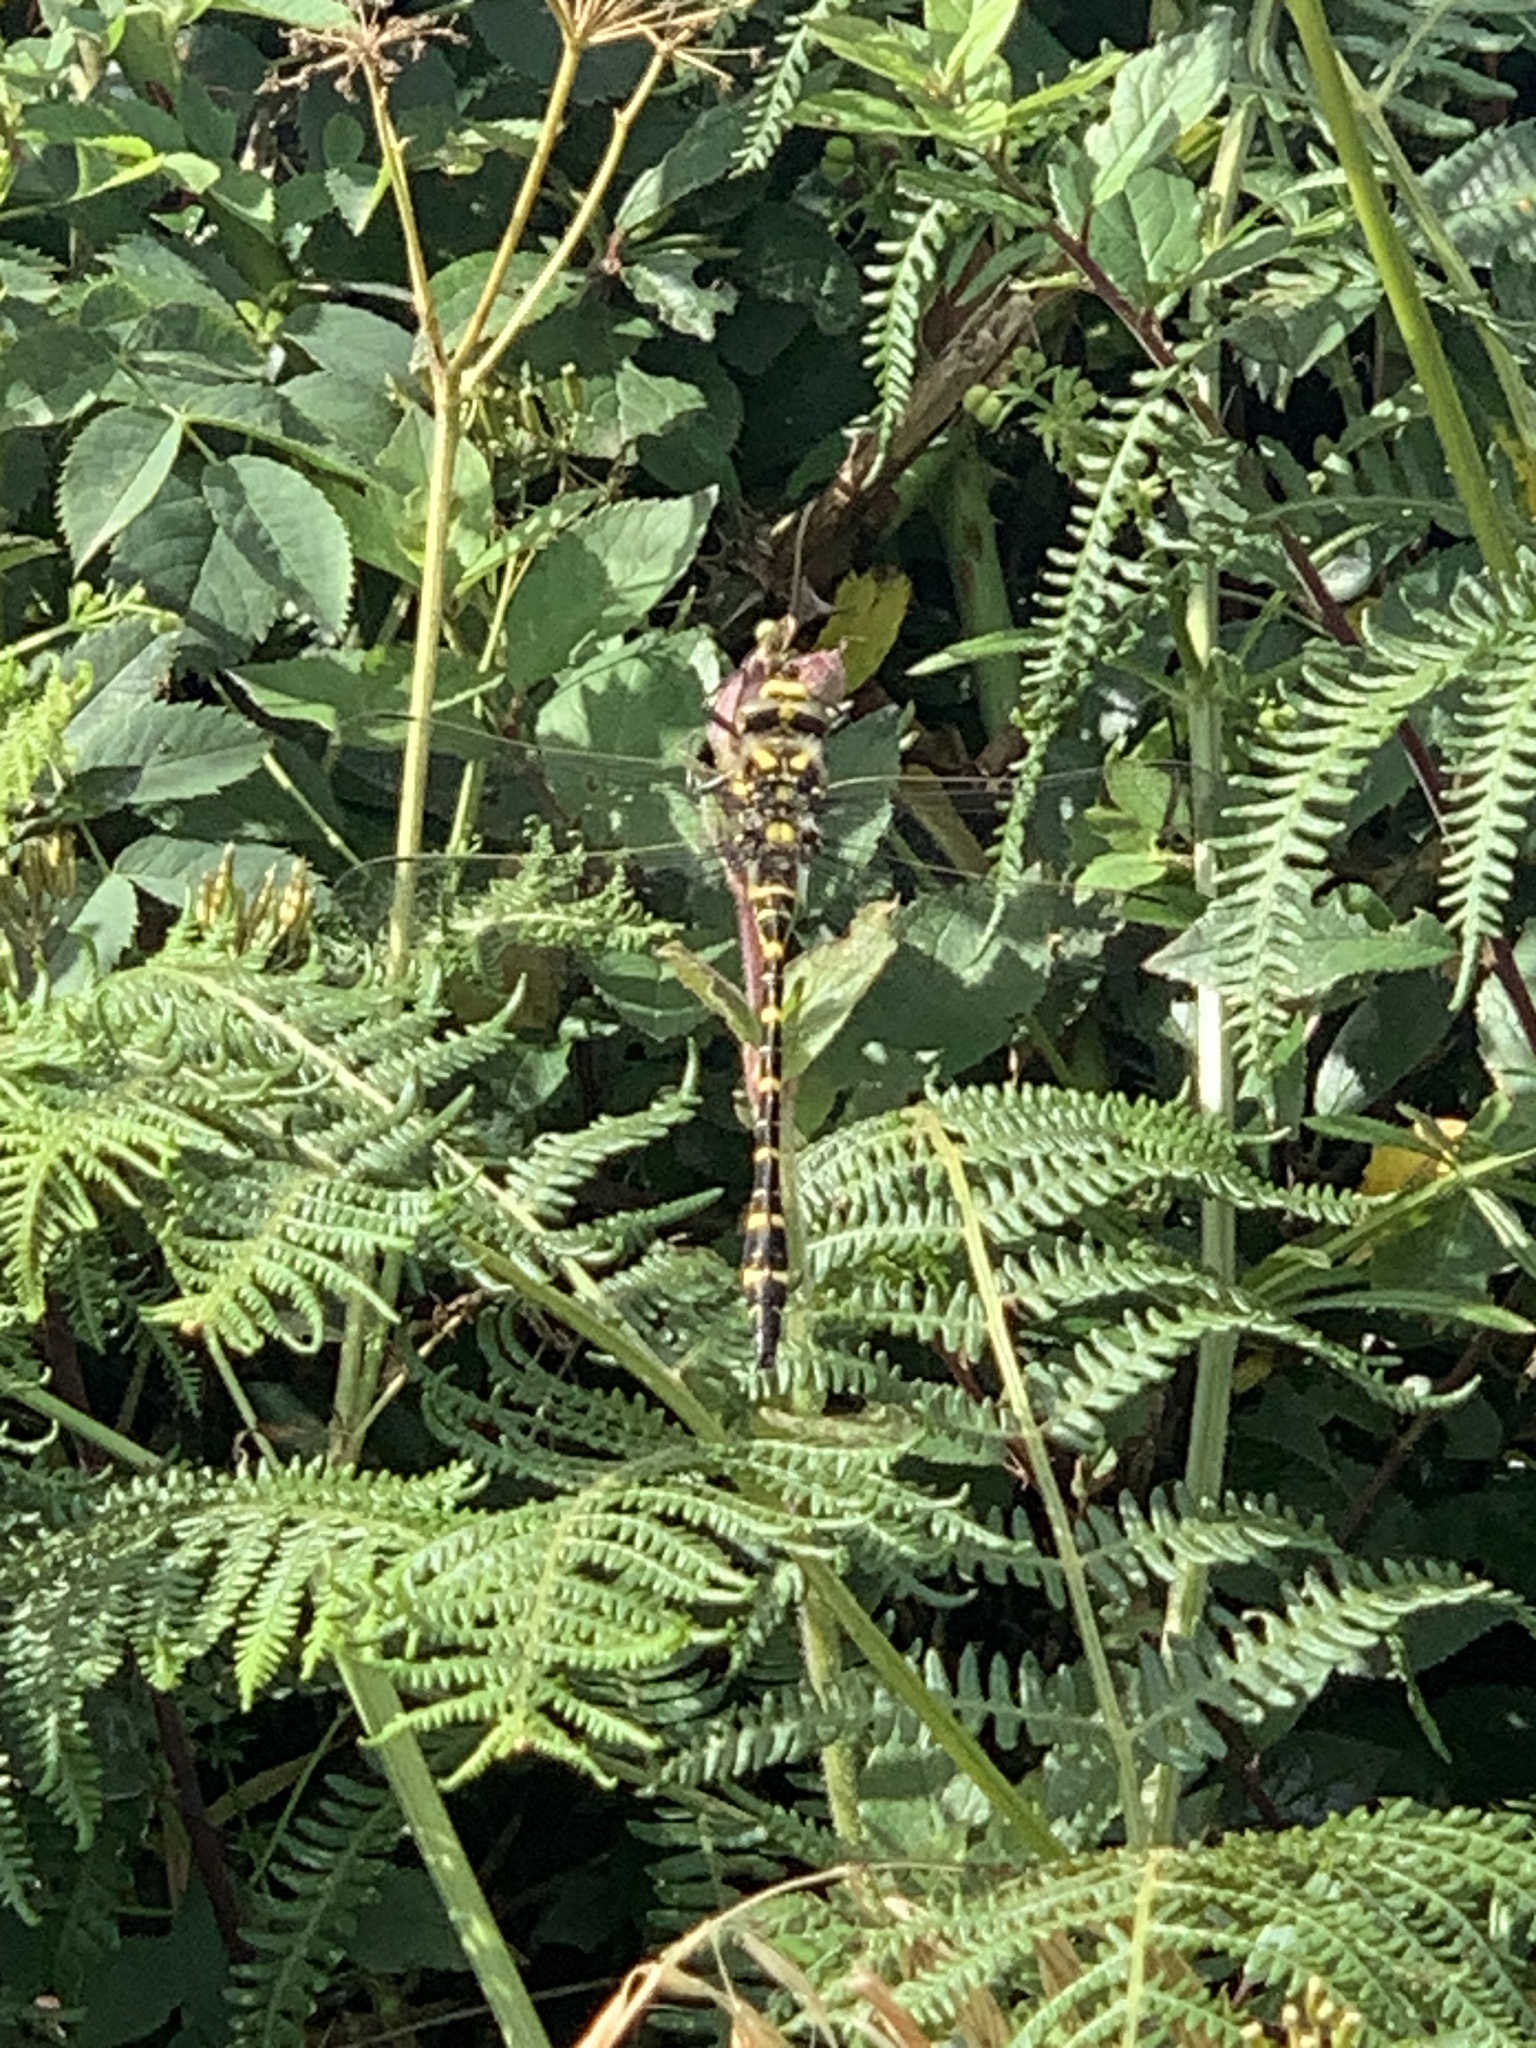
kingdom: Animalia
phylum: Arthropoda
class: Insecta
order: Odonata
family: Cordulegastridae
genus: Cordulegaster
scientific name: Cordulegaster boltonii
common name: Golden-ringed dragonfly
